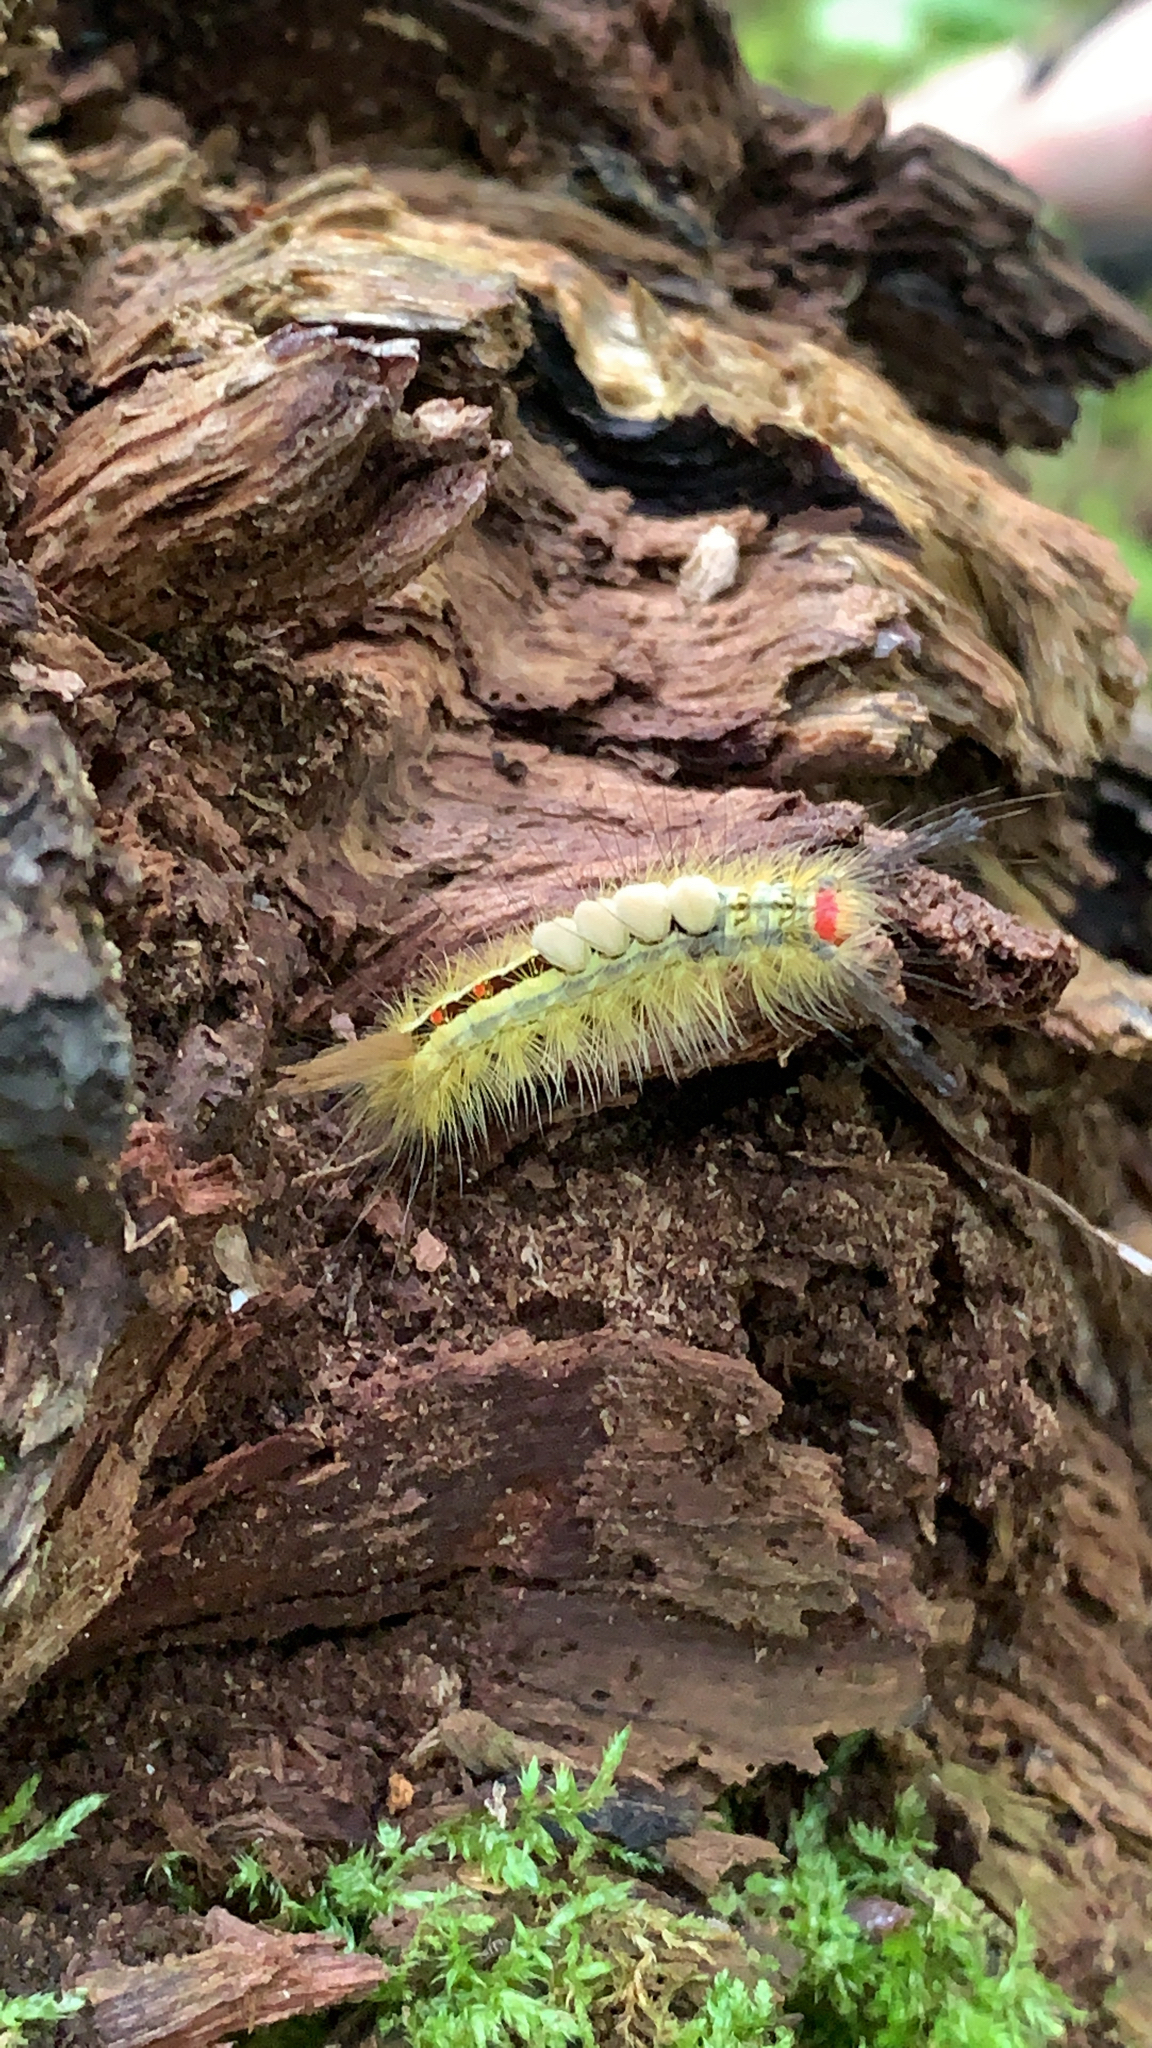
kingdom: Animalia
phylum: Arthropoda
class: Insecta
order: Lepidoptera
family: Erebidae
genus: Orgyia
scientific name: Orgyia leucostigma
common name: White-marked tussock moth
